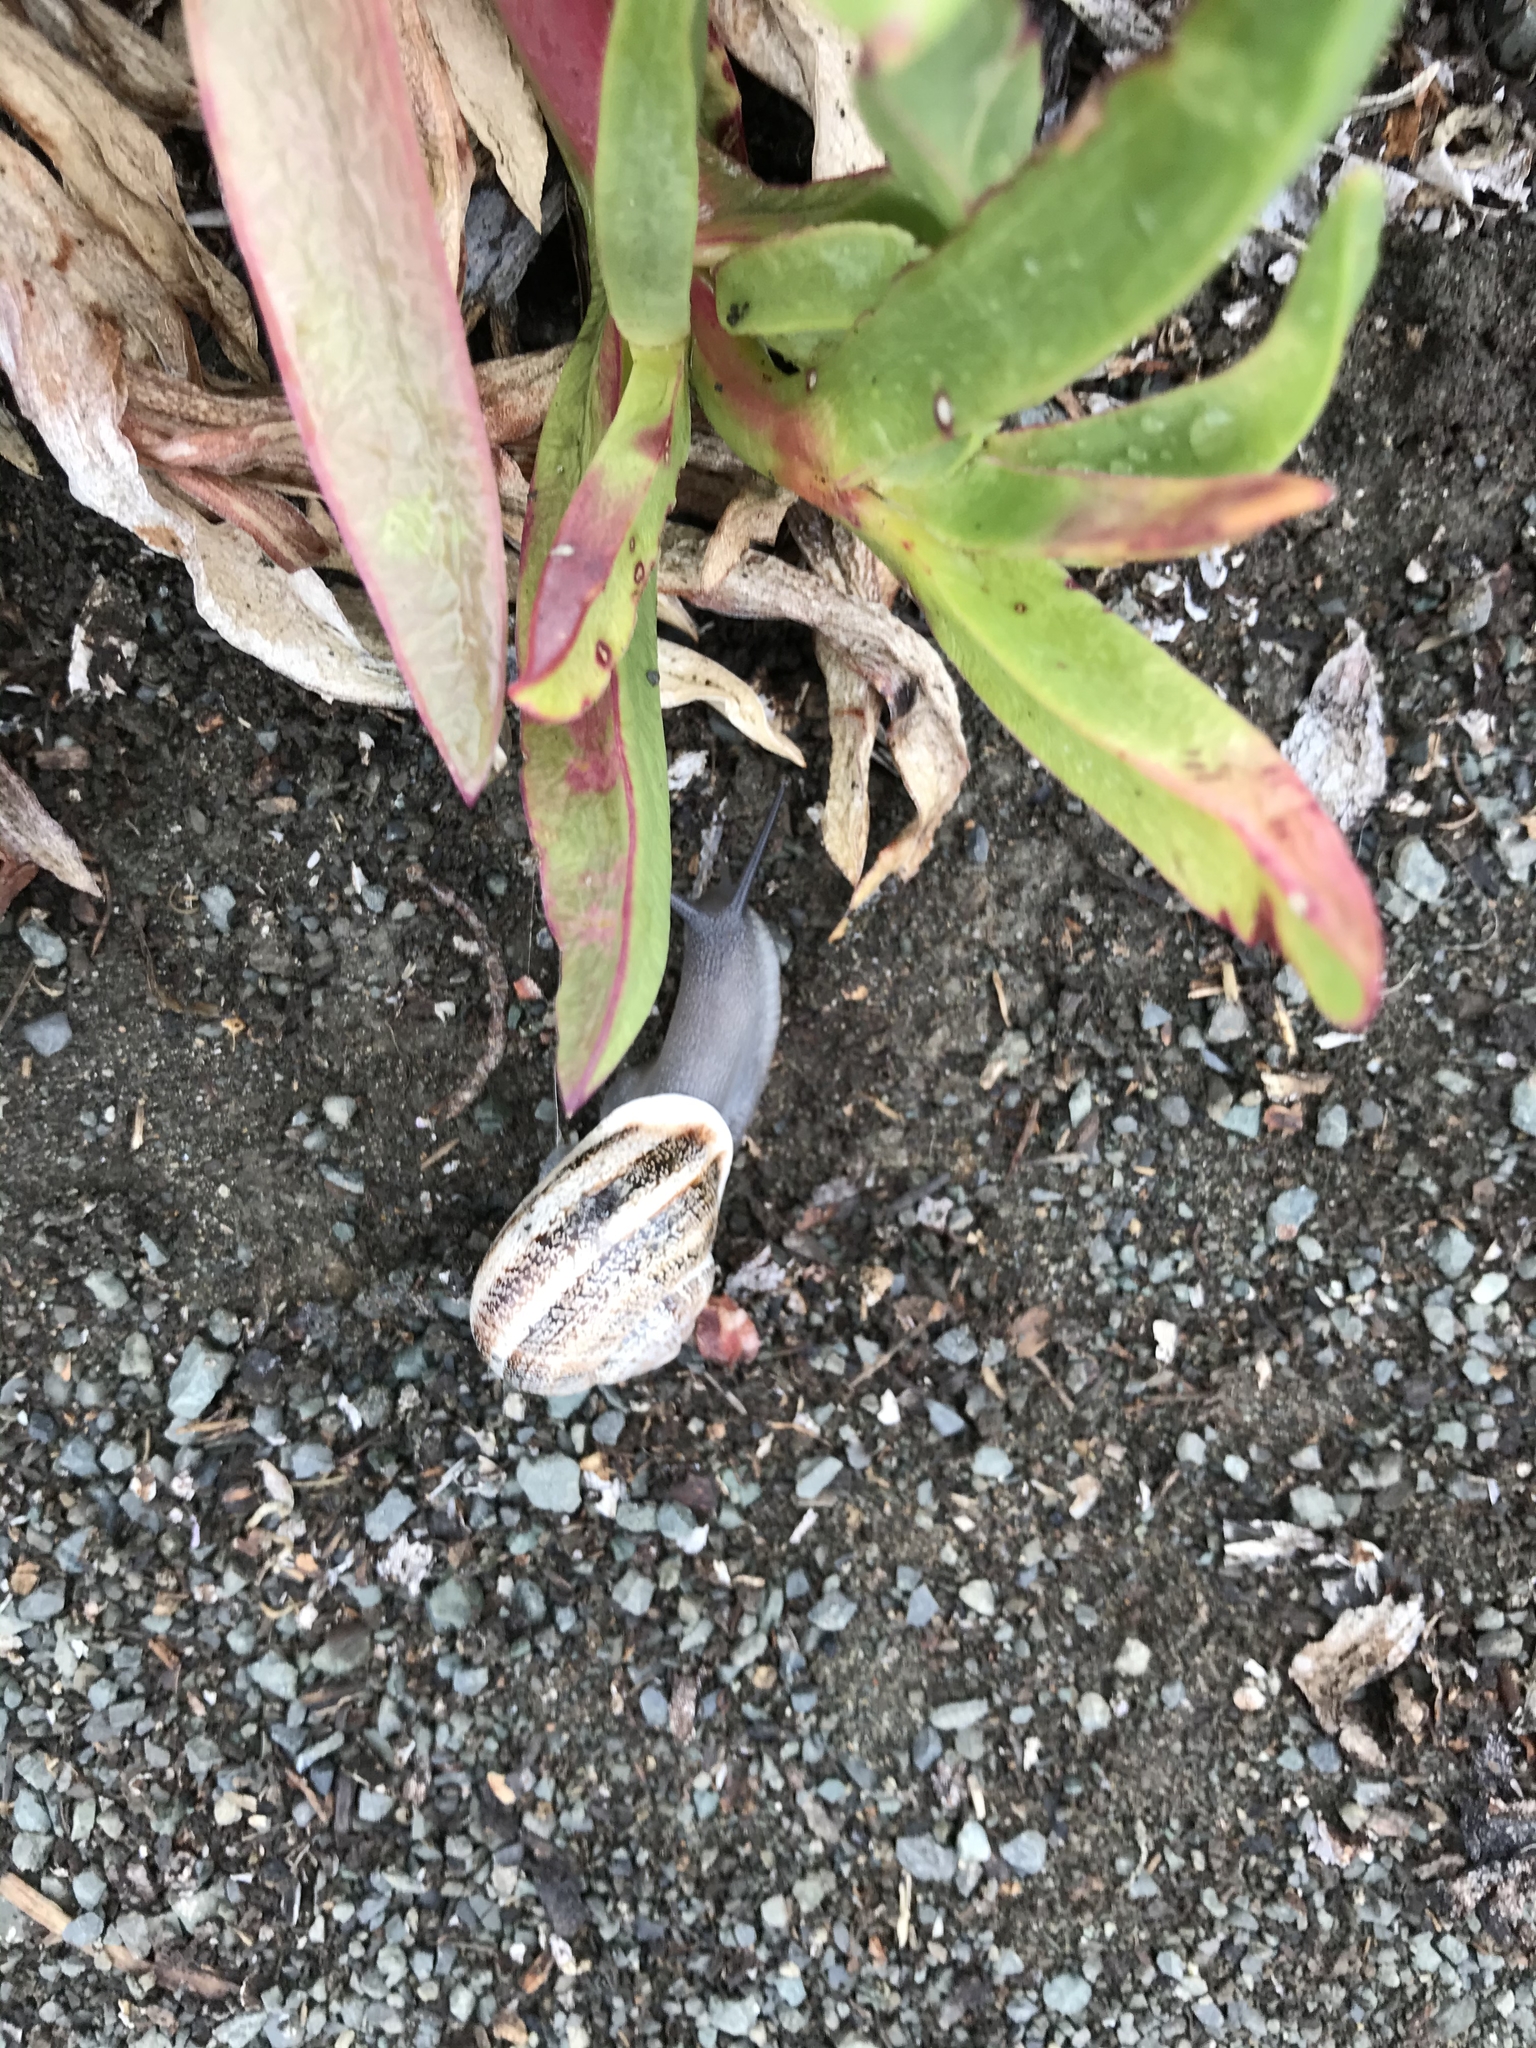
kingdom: Animalia
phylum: Mollusca
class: Gastropoda
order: Stylommatophora
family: Helicidae
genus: Otala
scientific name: Otala lactea
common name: Milk snail
